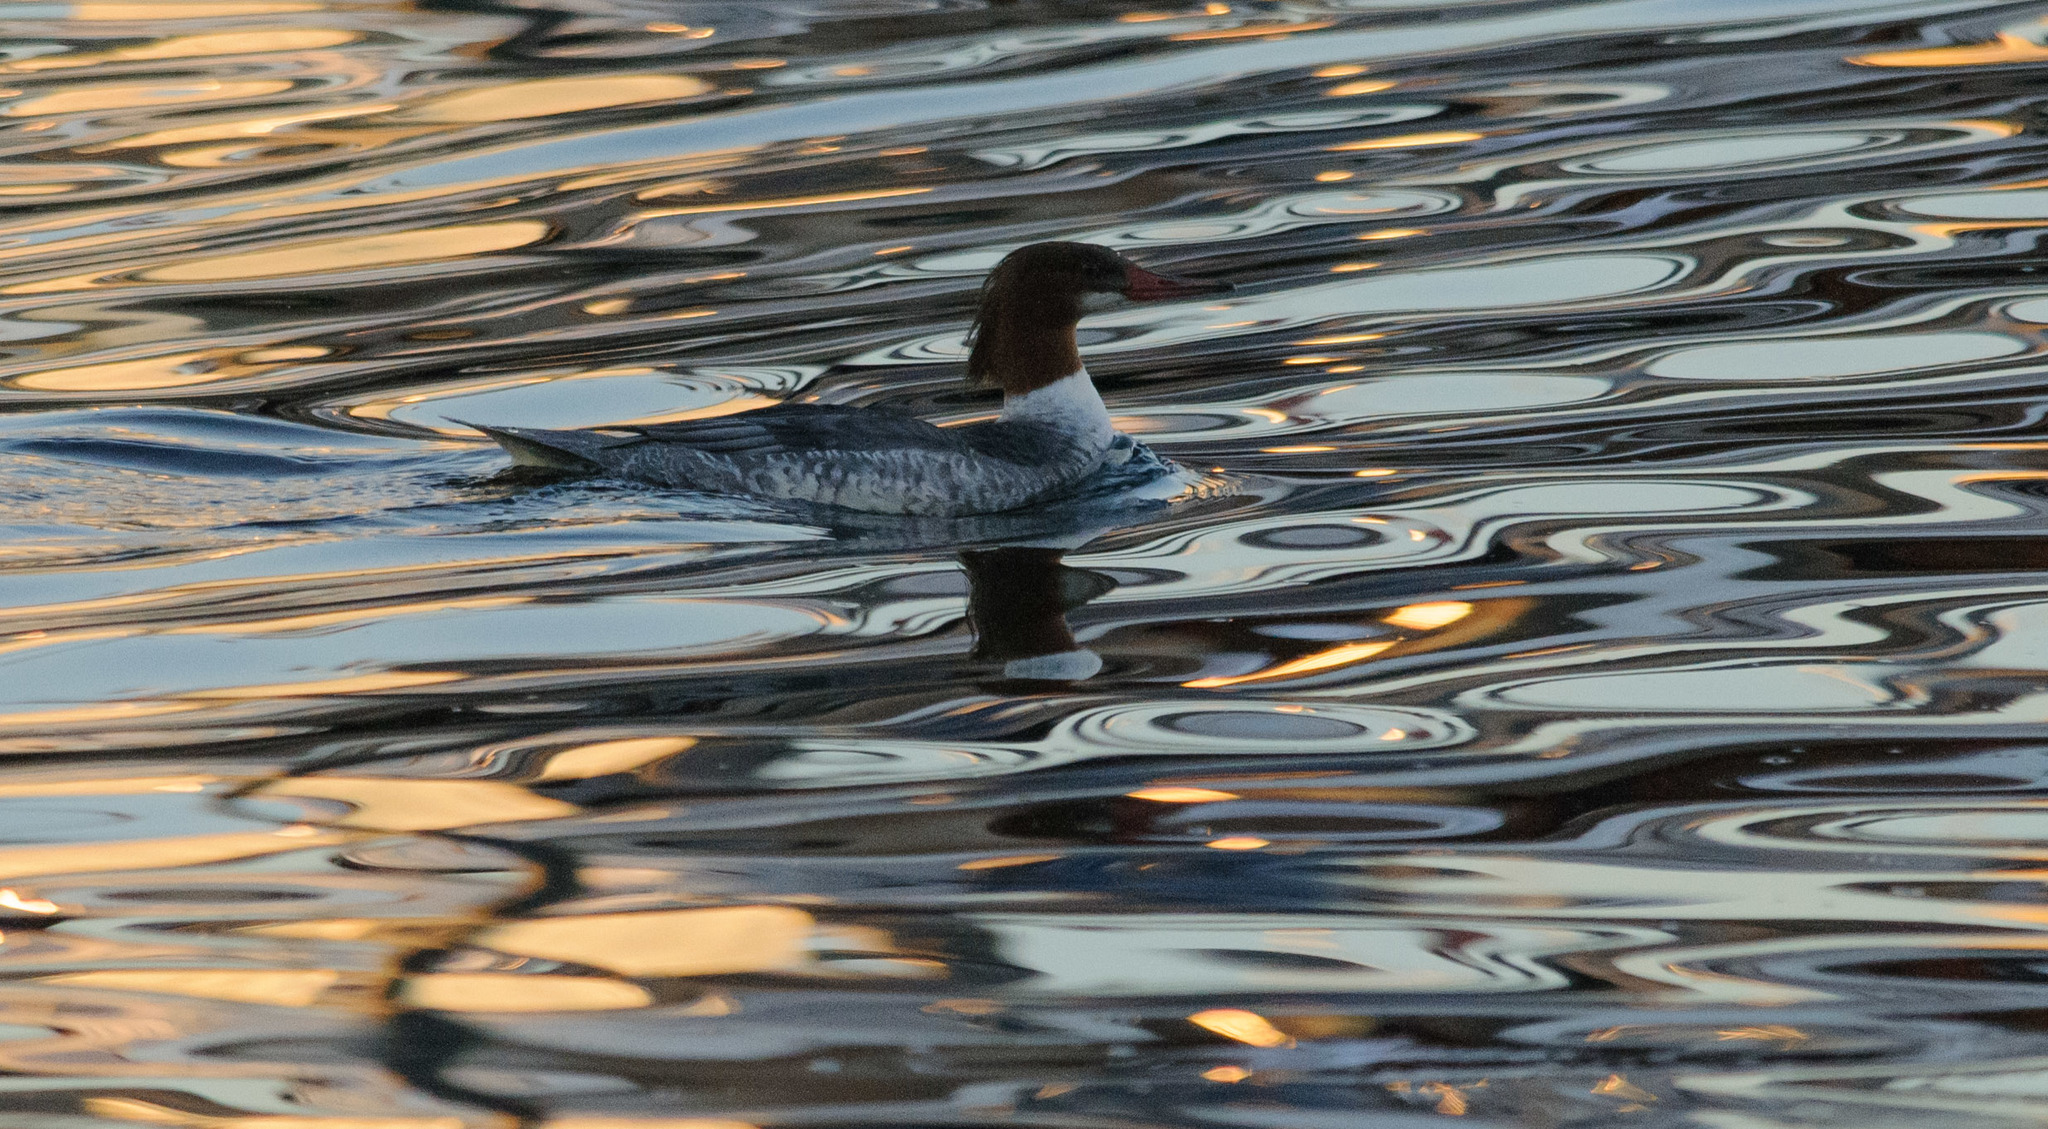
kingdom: Animalia
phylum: Chordata
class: Aves
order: Anseriformes
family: Anatidae
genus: Mergus
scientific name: Mergus merganser
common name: Common merganser
